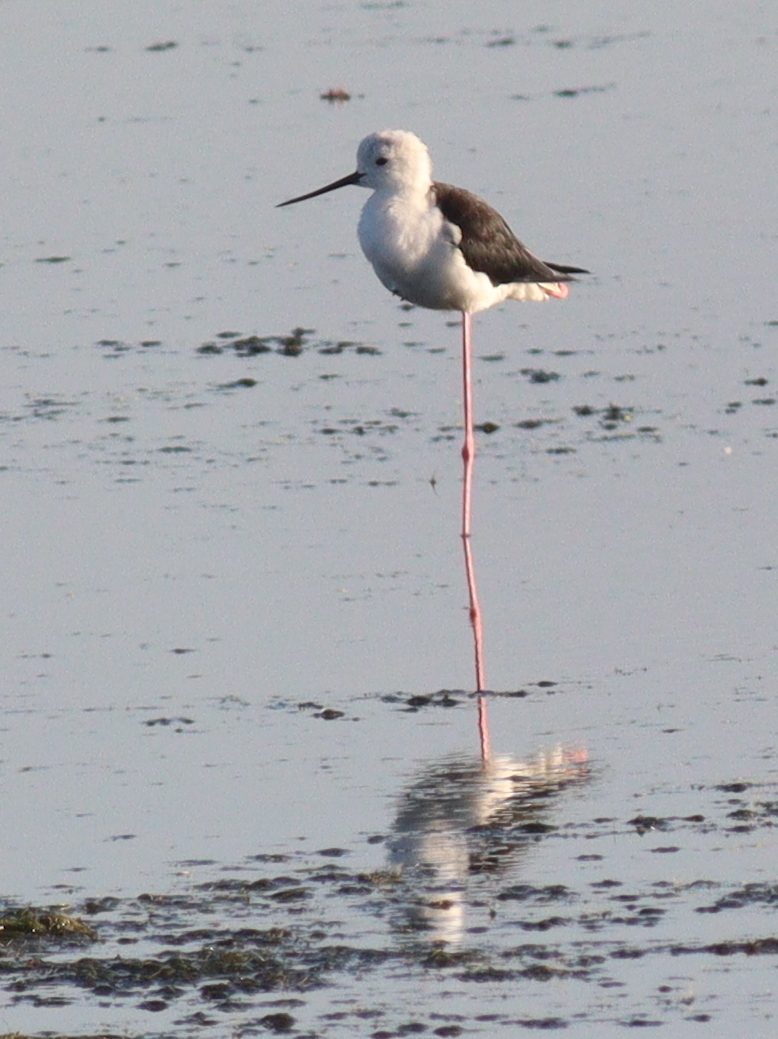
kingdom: Animalia
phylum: Chordata
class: Aves
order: Charadriiformes
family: Recurvirostridae
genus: Himantopus
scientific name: Himantopus himantopus
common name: Black-winged stilt
